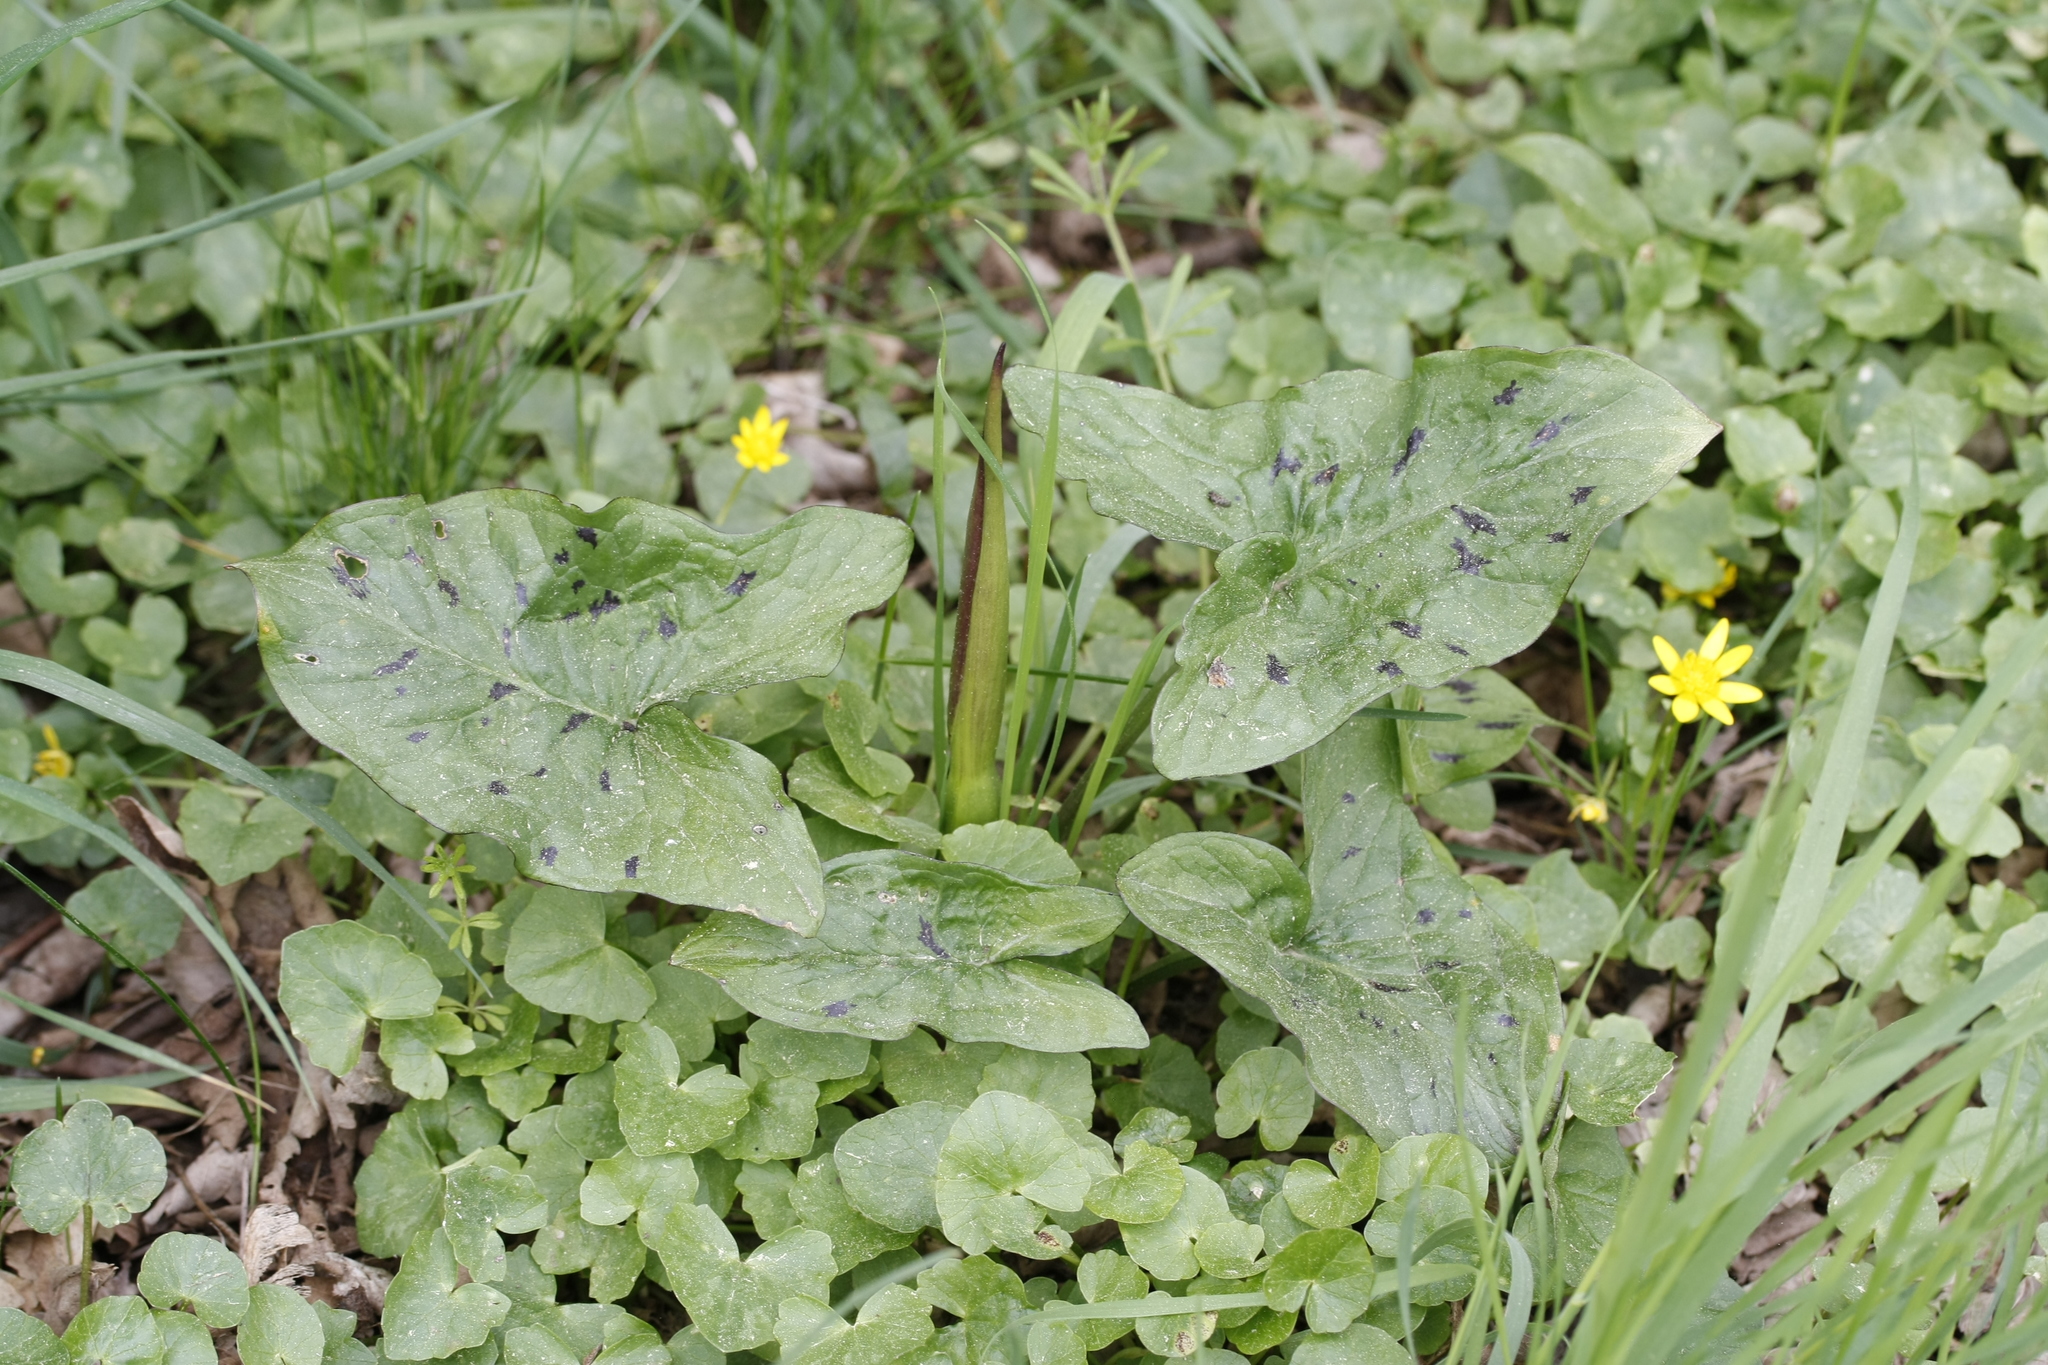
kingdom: Plantae
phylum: Tracheophyta
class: Liliopsida
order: Alismatales
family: Araceae
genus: Arum
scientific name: Arum maculatum
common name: Lords-and-ladies
